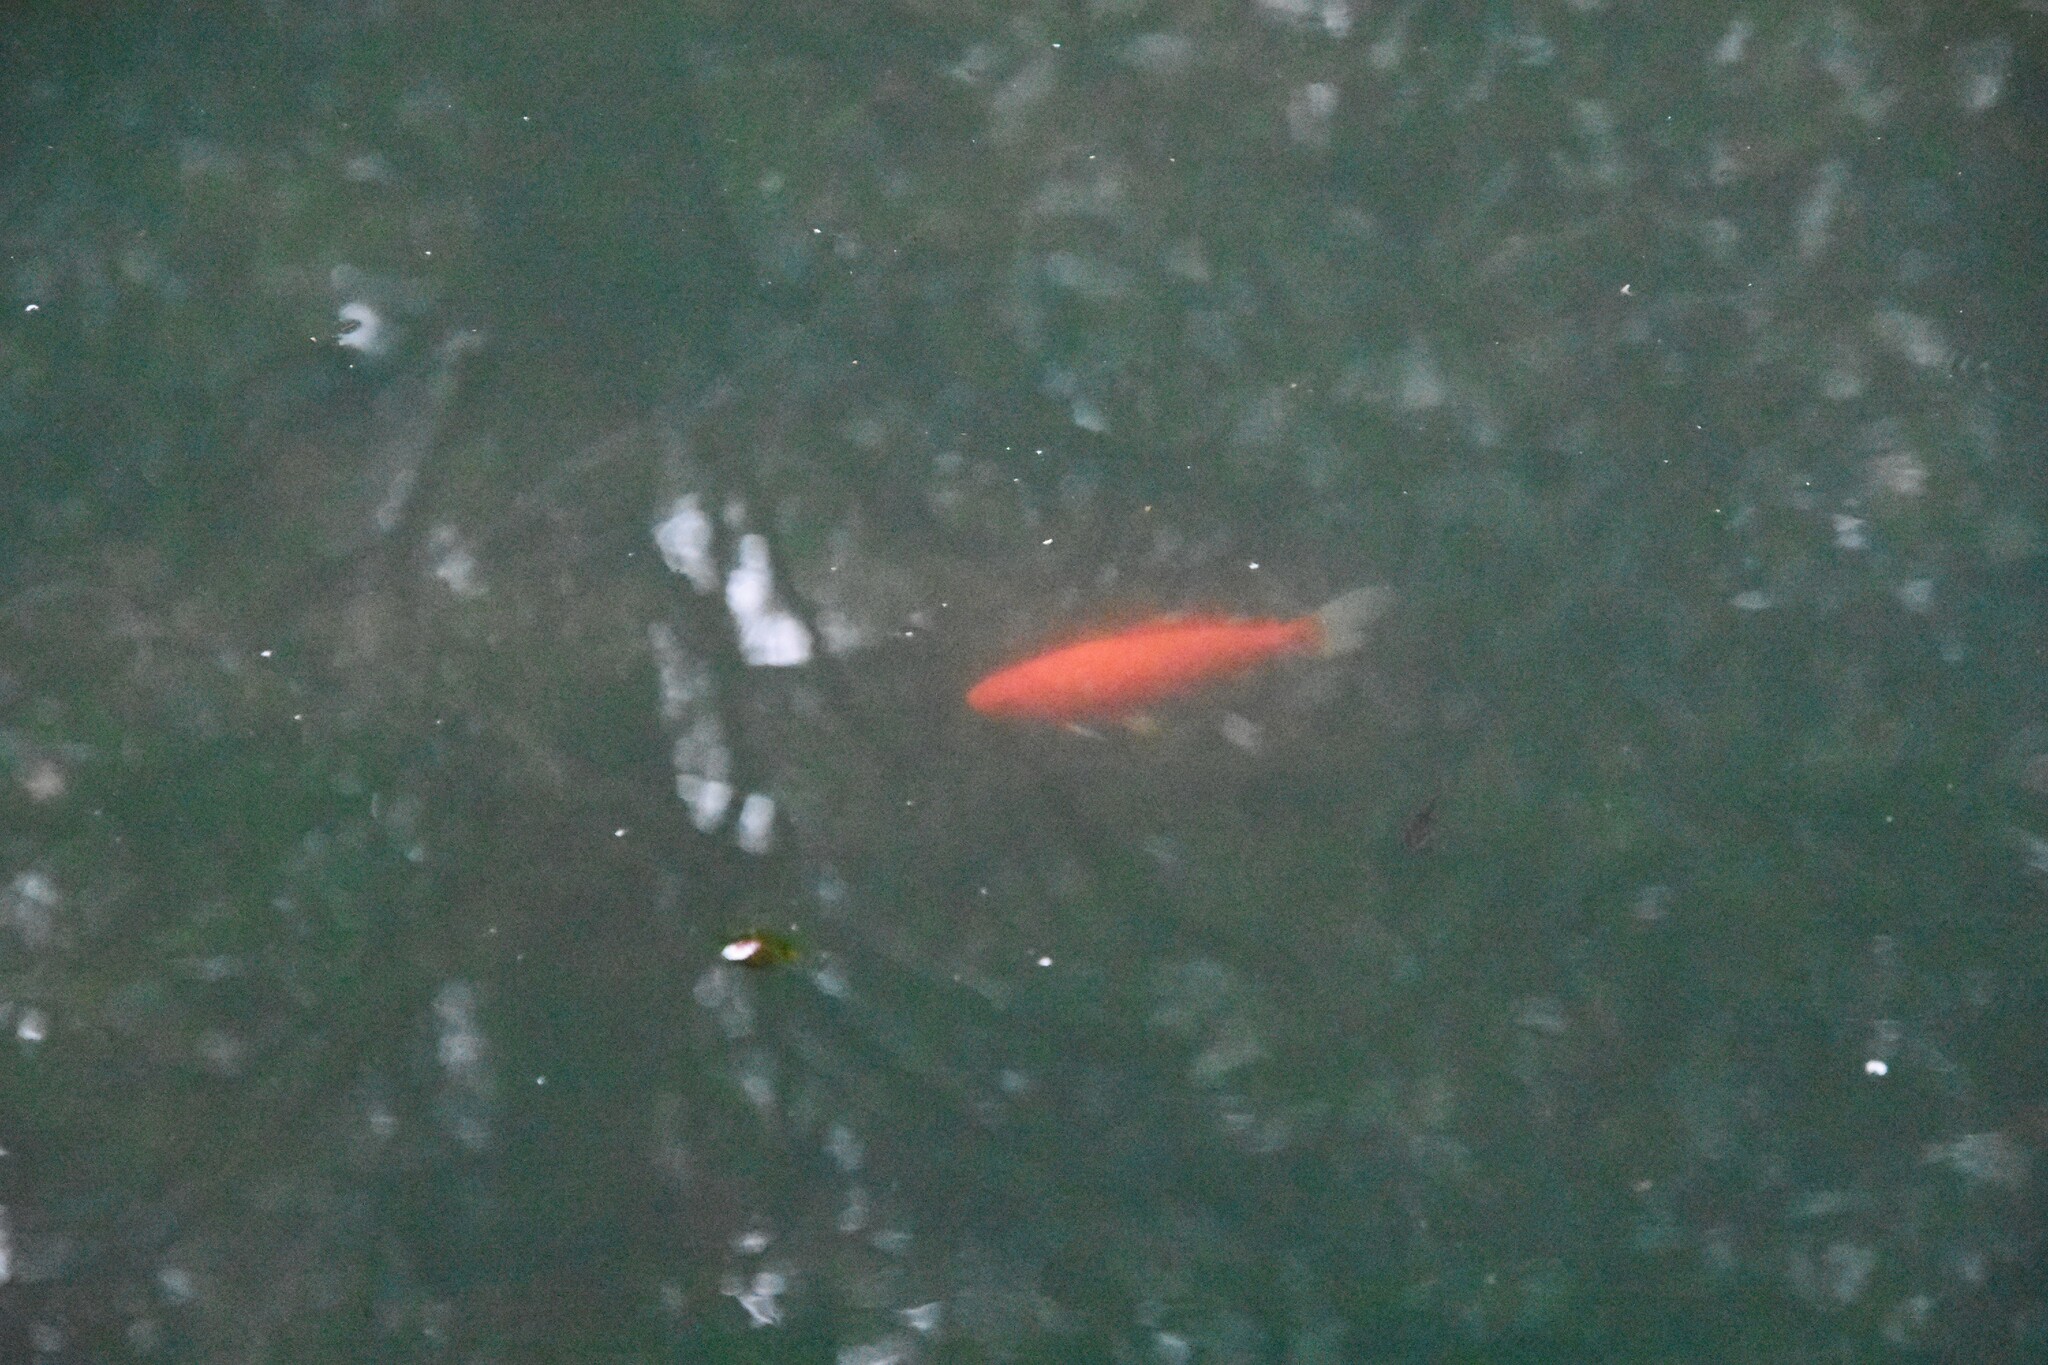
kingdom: Animalia
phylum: Chordata
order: Cypriniformes
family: Cyprinidae
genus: Carassius
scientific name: Carassius auratus
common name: Goldfish
